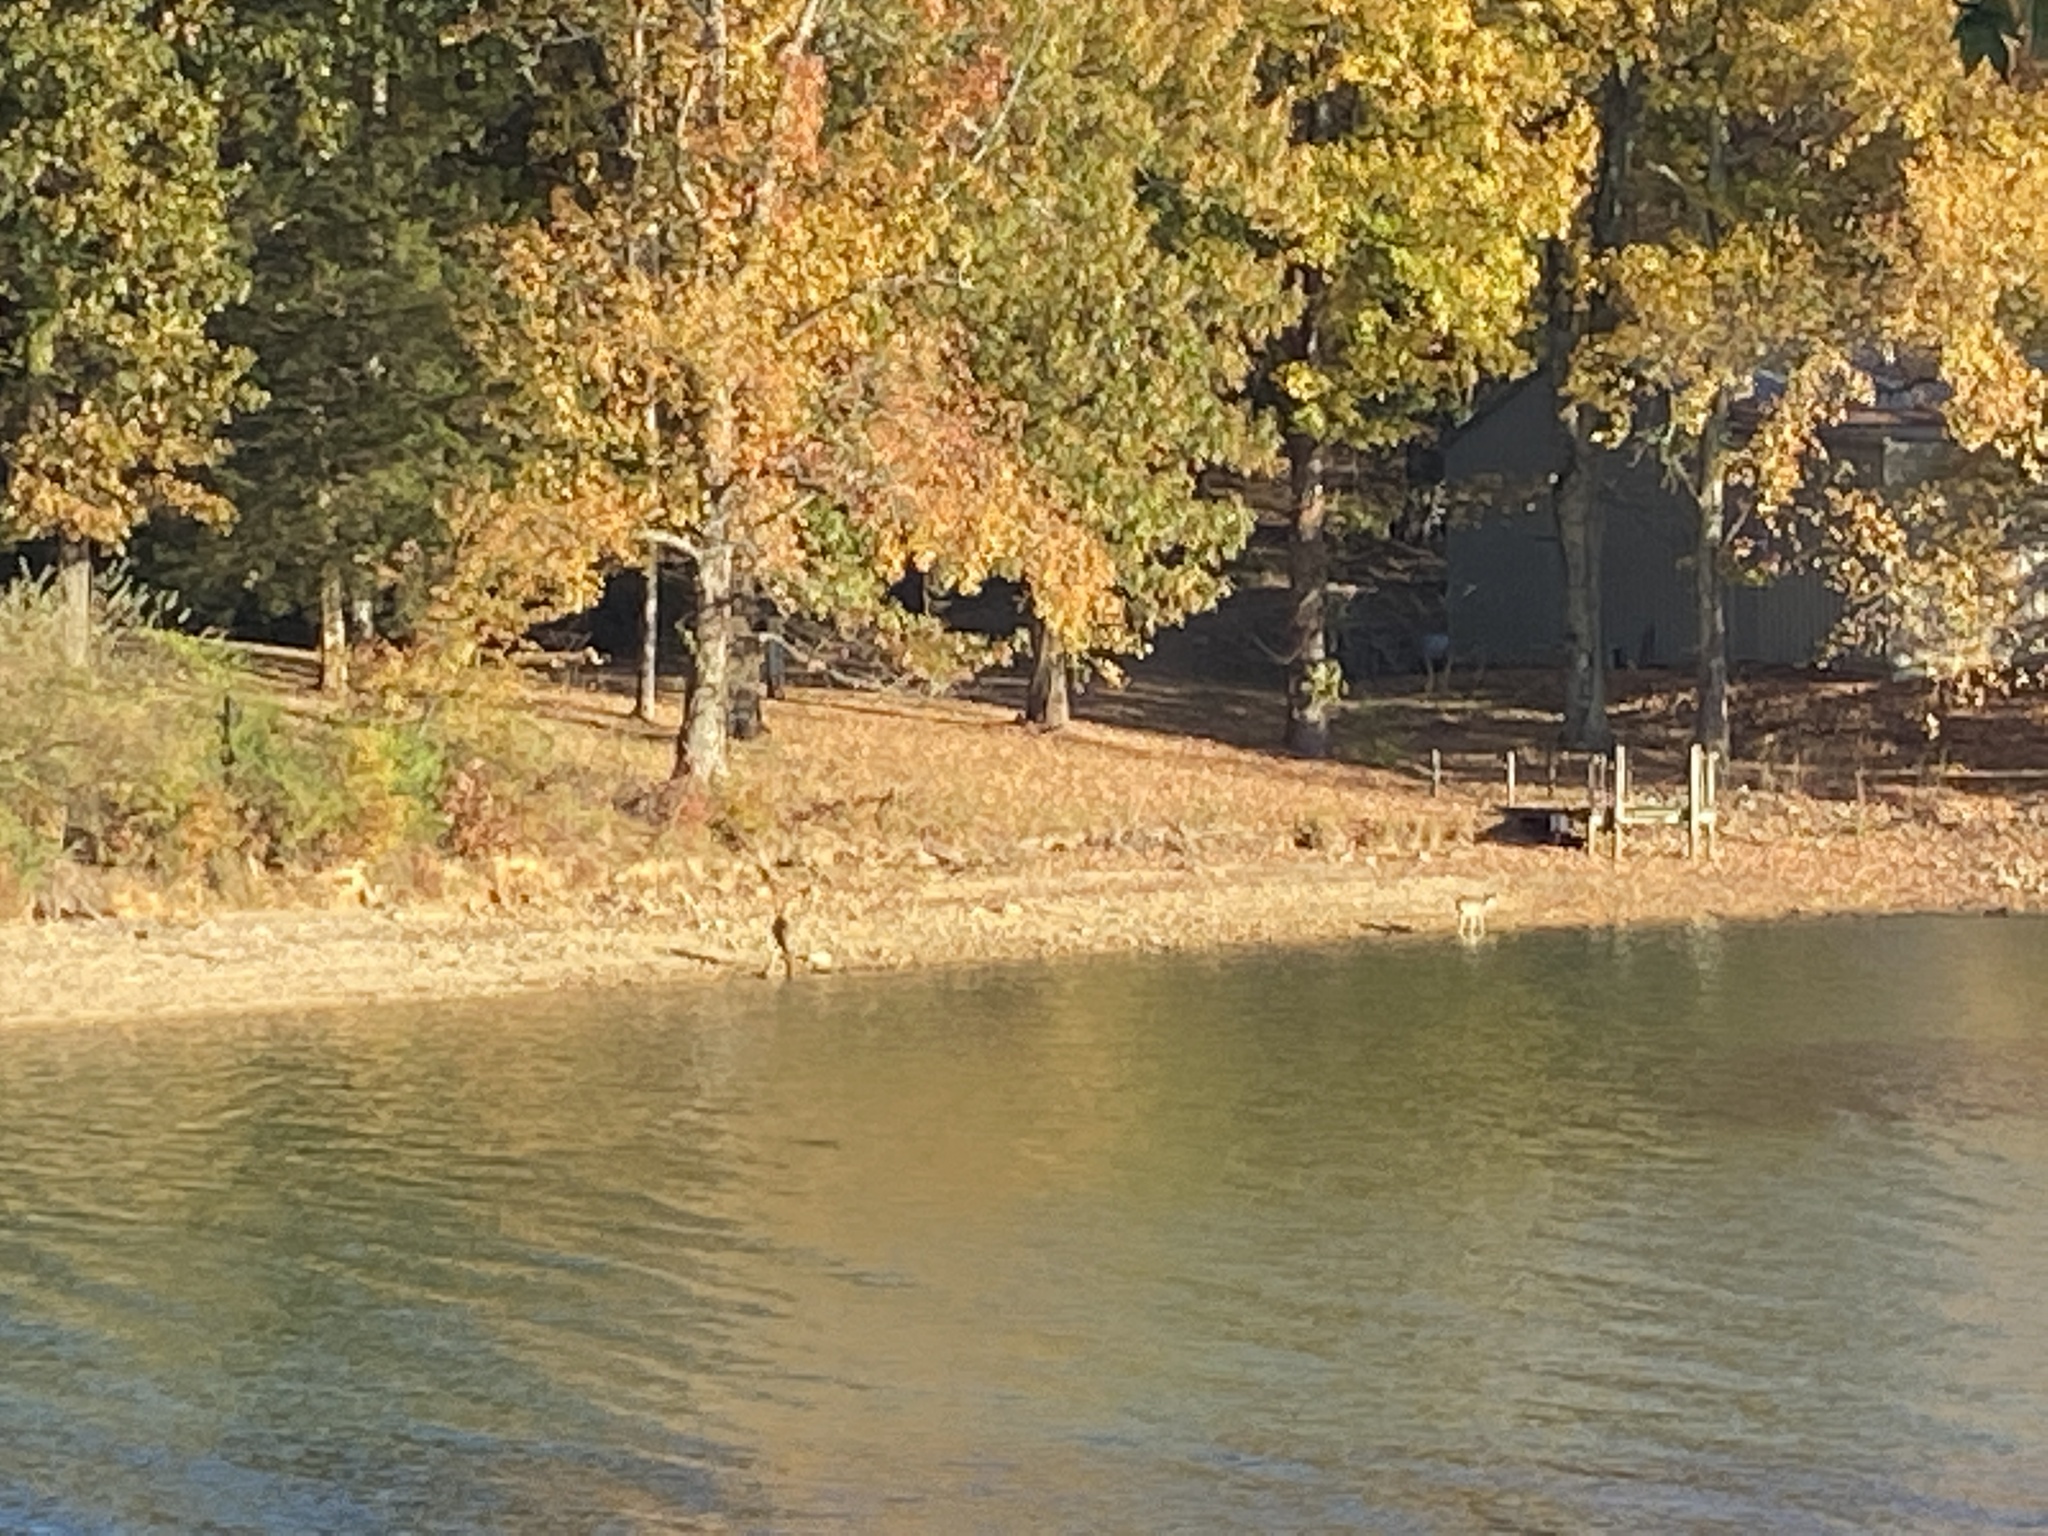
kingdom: Animalia
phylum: Chordata
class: Mammalia
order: Artiodactyla
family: Cervidae
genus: Odocoileus
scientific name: Odocoileus virginianus
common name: White-tailed deer
